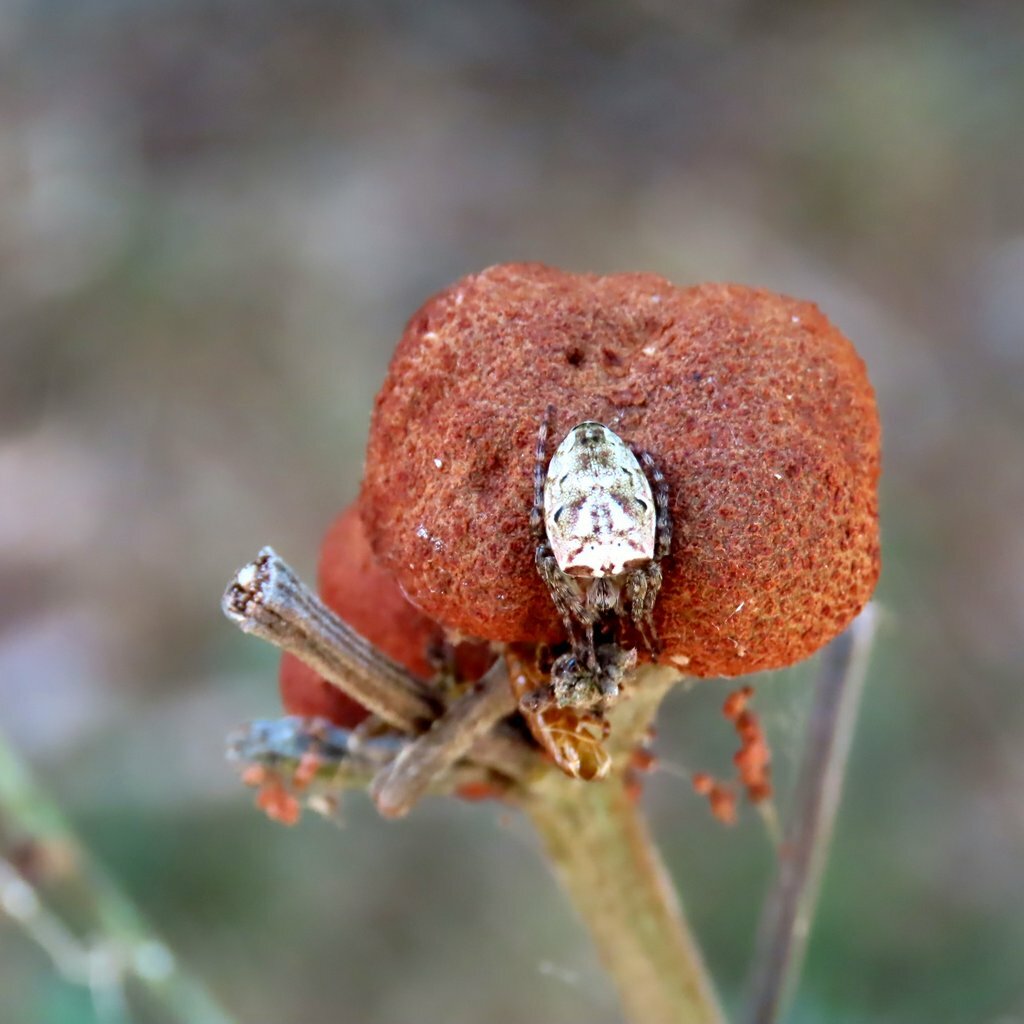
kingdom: Animalia
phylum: Arthropoda
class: Arachnida
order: Araneae
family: Araneidae
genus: Plebs
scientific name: Plebs eburnus
